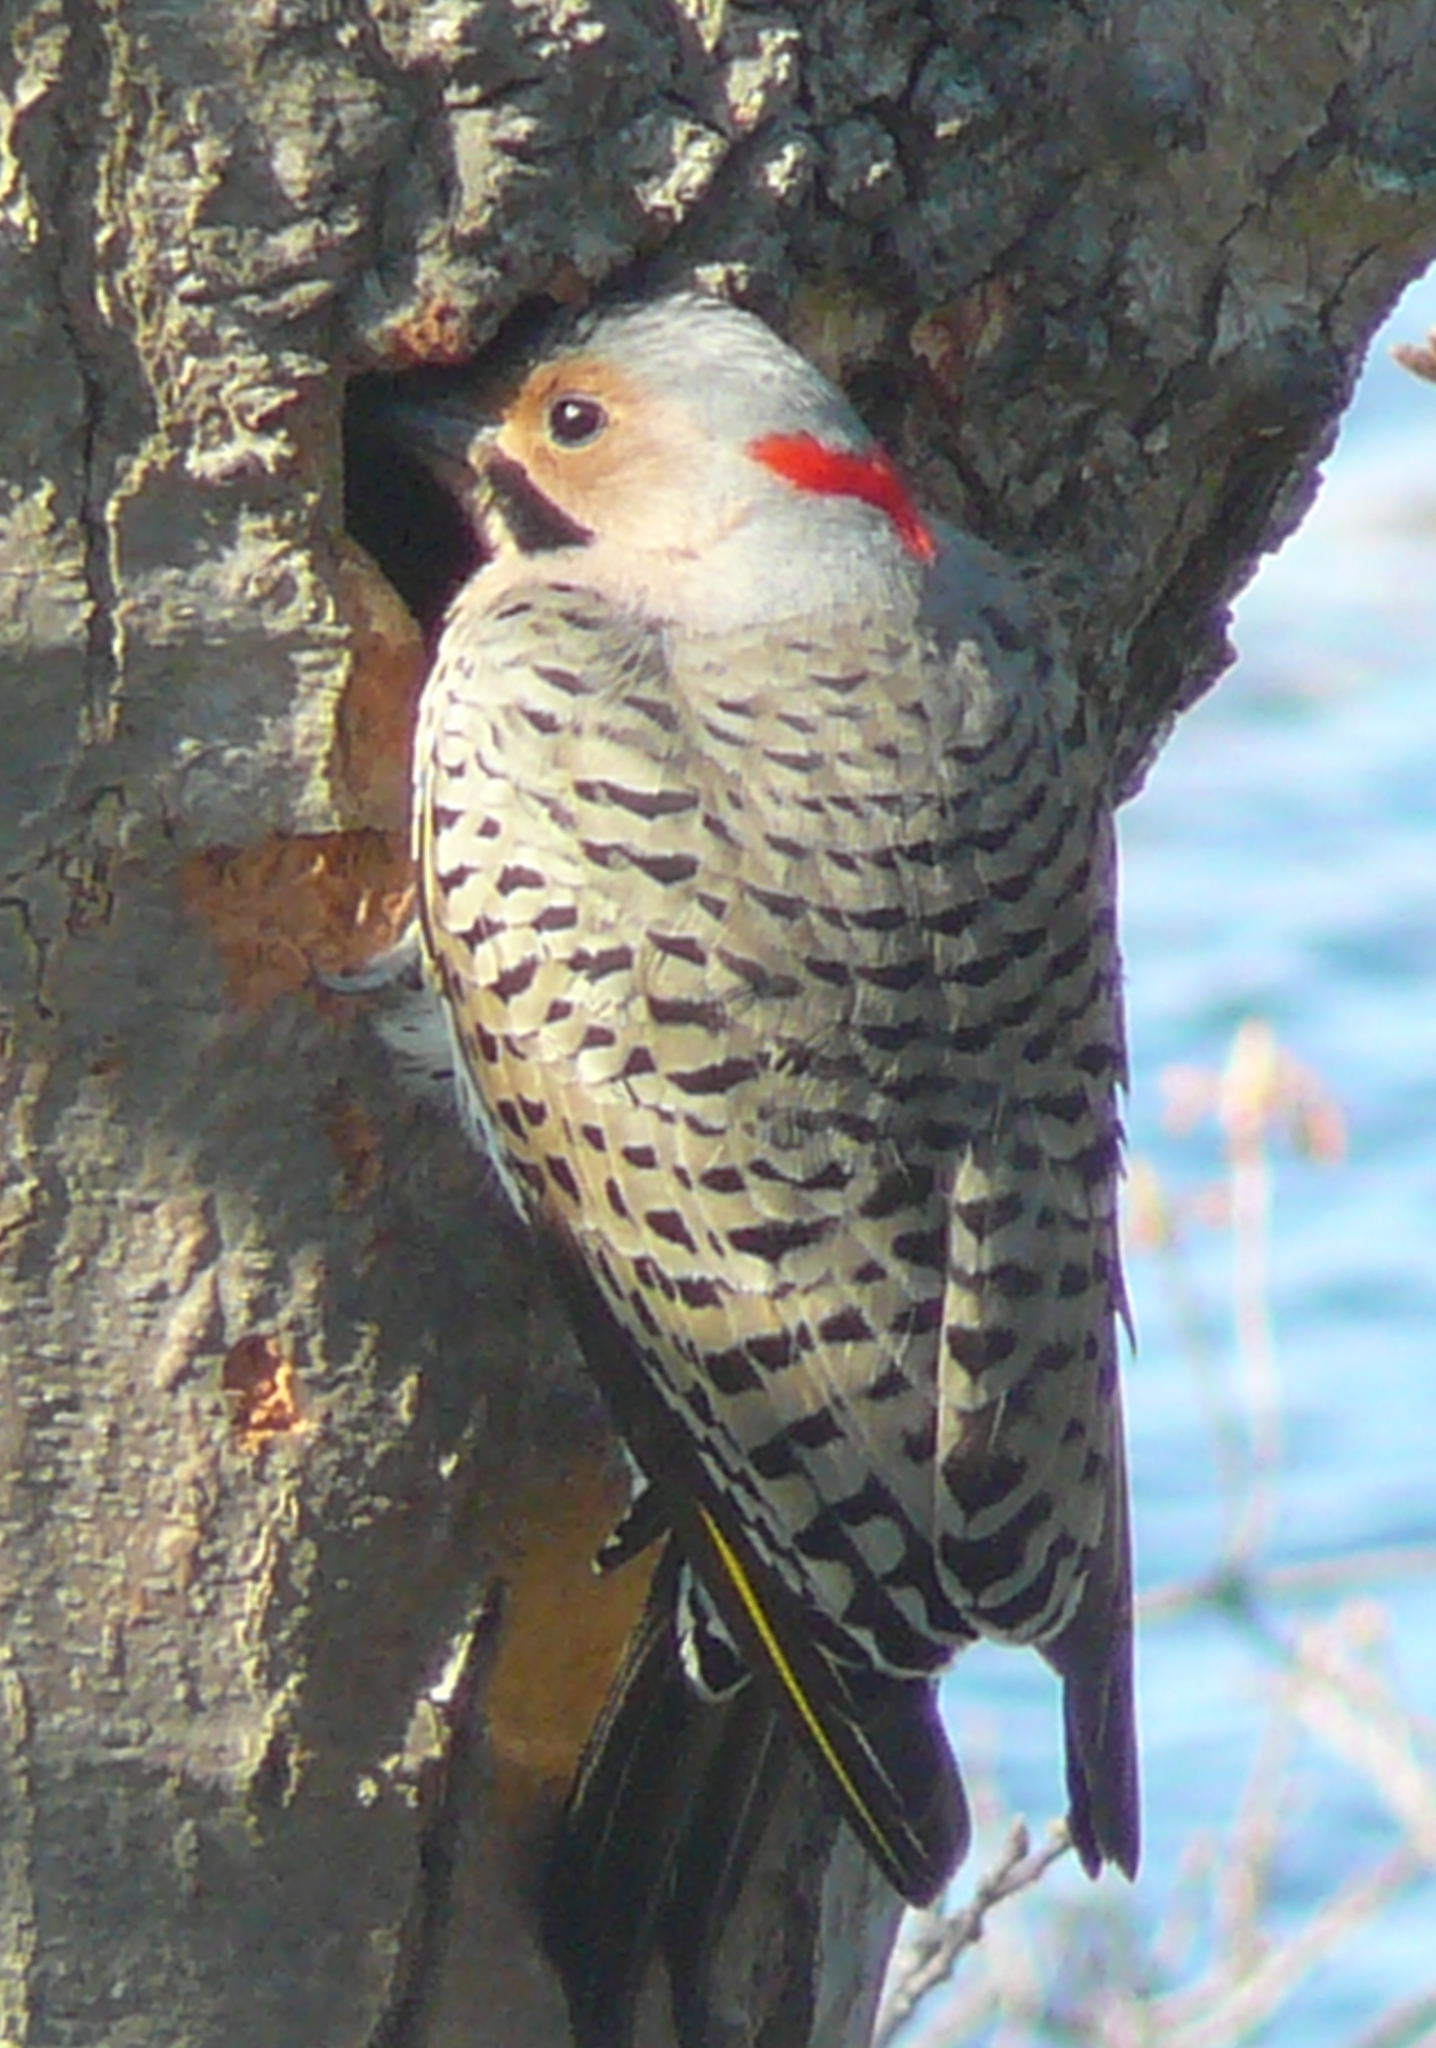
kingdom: Animalia
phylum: Chordata
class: Aves
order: Piciformes
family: Picidae
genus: Colaptes
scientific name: Colaptes auratus
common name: Northern flicker
